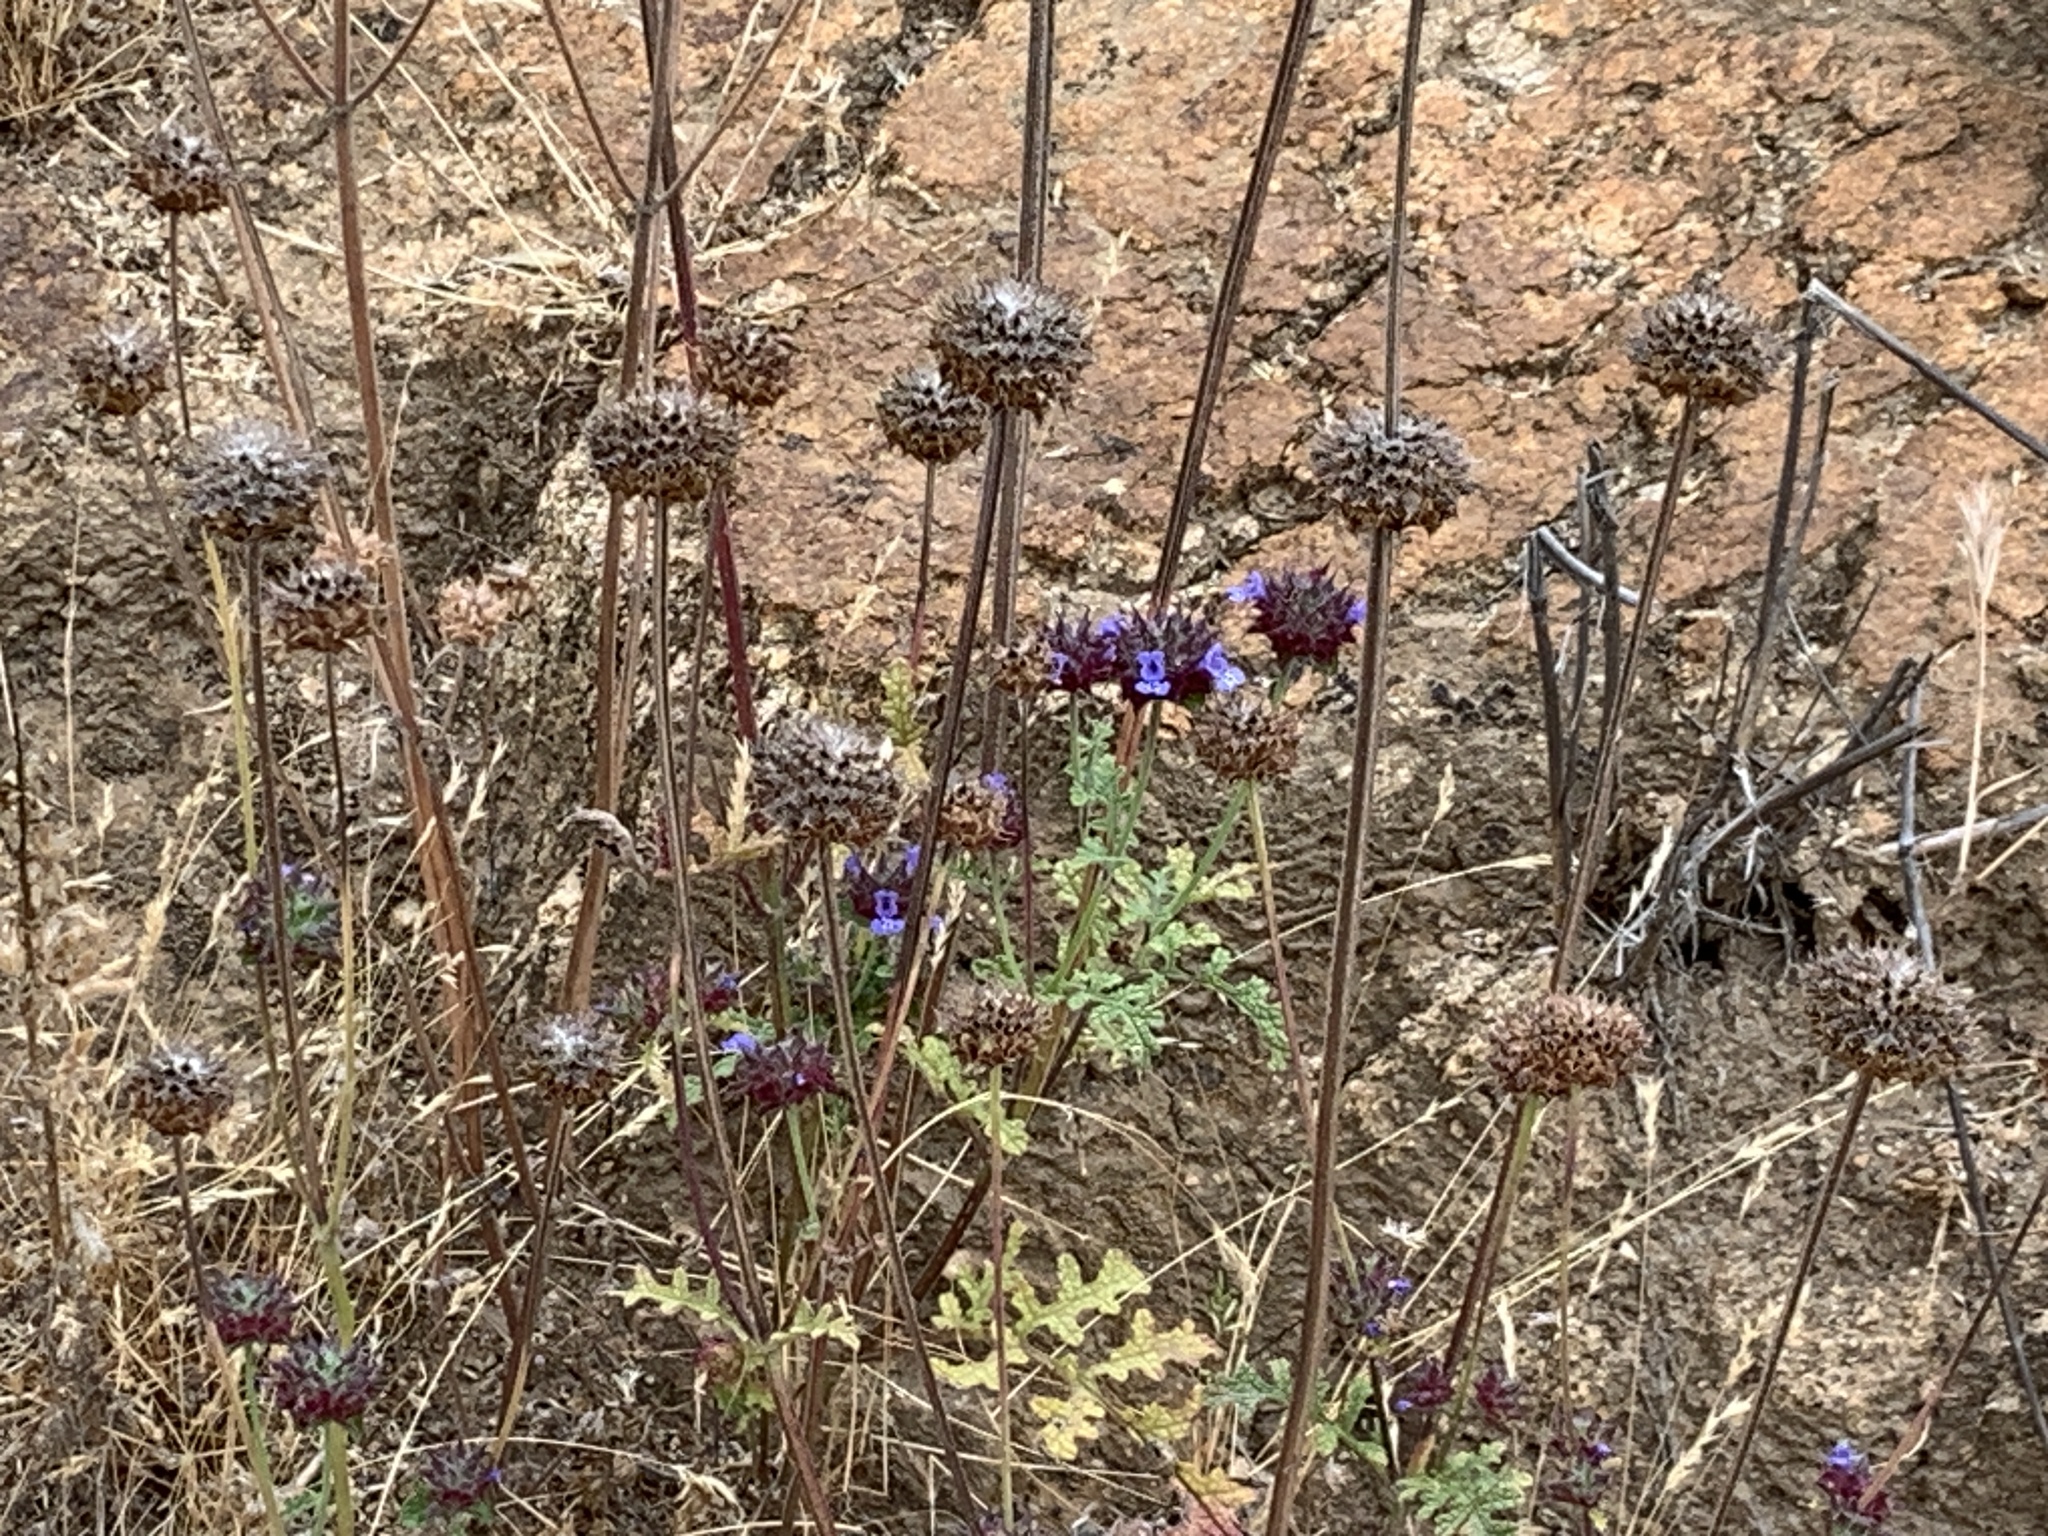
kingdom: Plantae
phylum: Tracheophyta
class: Magnoliopsida
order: Lamiales
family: Lamiaceae
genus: Salvia
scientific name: Salvia columbariae
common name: Chia
